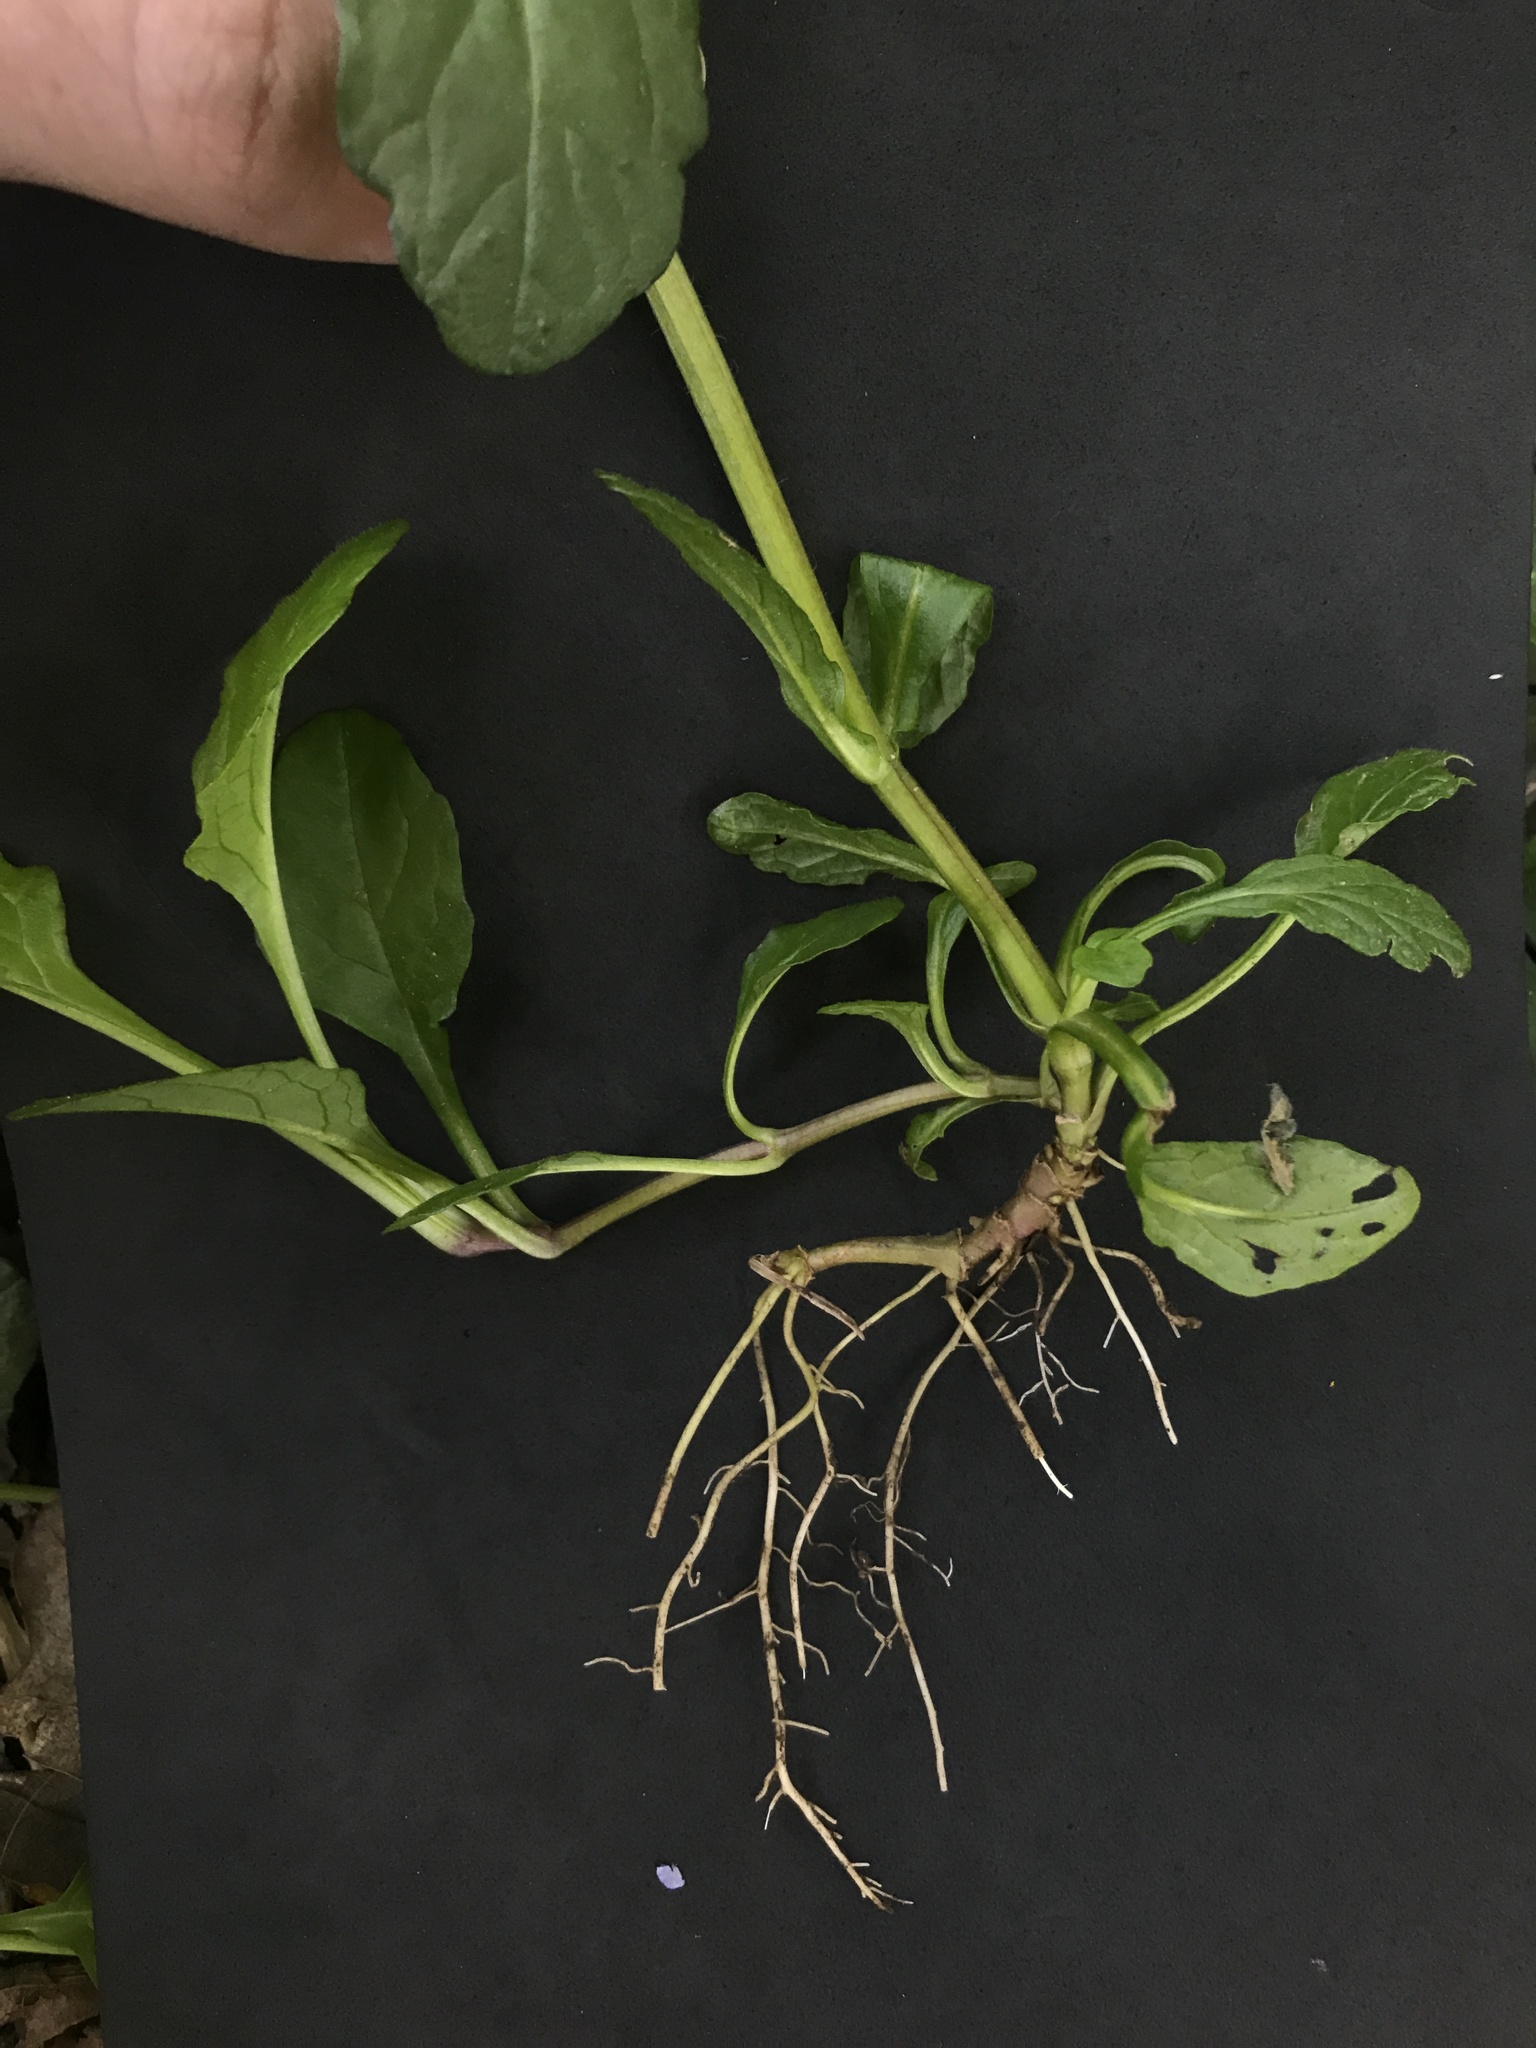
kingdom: Plantae
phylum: Tracheophyta
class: Magnoliopsida
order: Lamiales
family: Lamiaceae
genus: Ajuga
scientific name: Ajuga reptans
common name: Bugle
